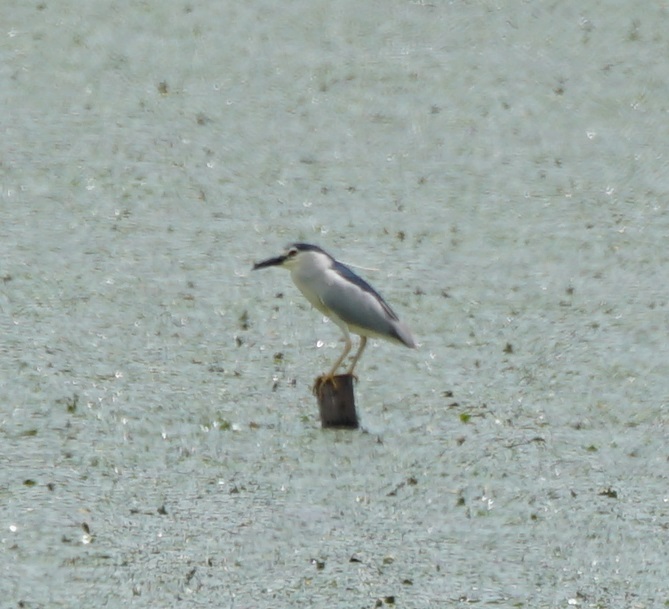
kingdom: Animalia
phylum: Chordata
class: Aves
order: Pelecaniformes
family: Ardeidae
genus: Nycticorax
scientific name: Nycticorax nycticorax
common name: Black-crowned night heron
